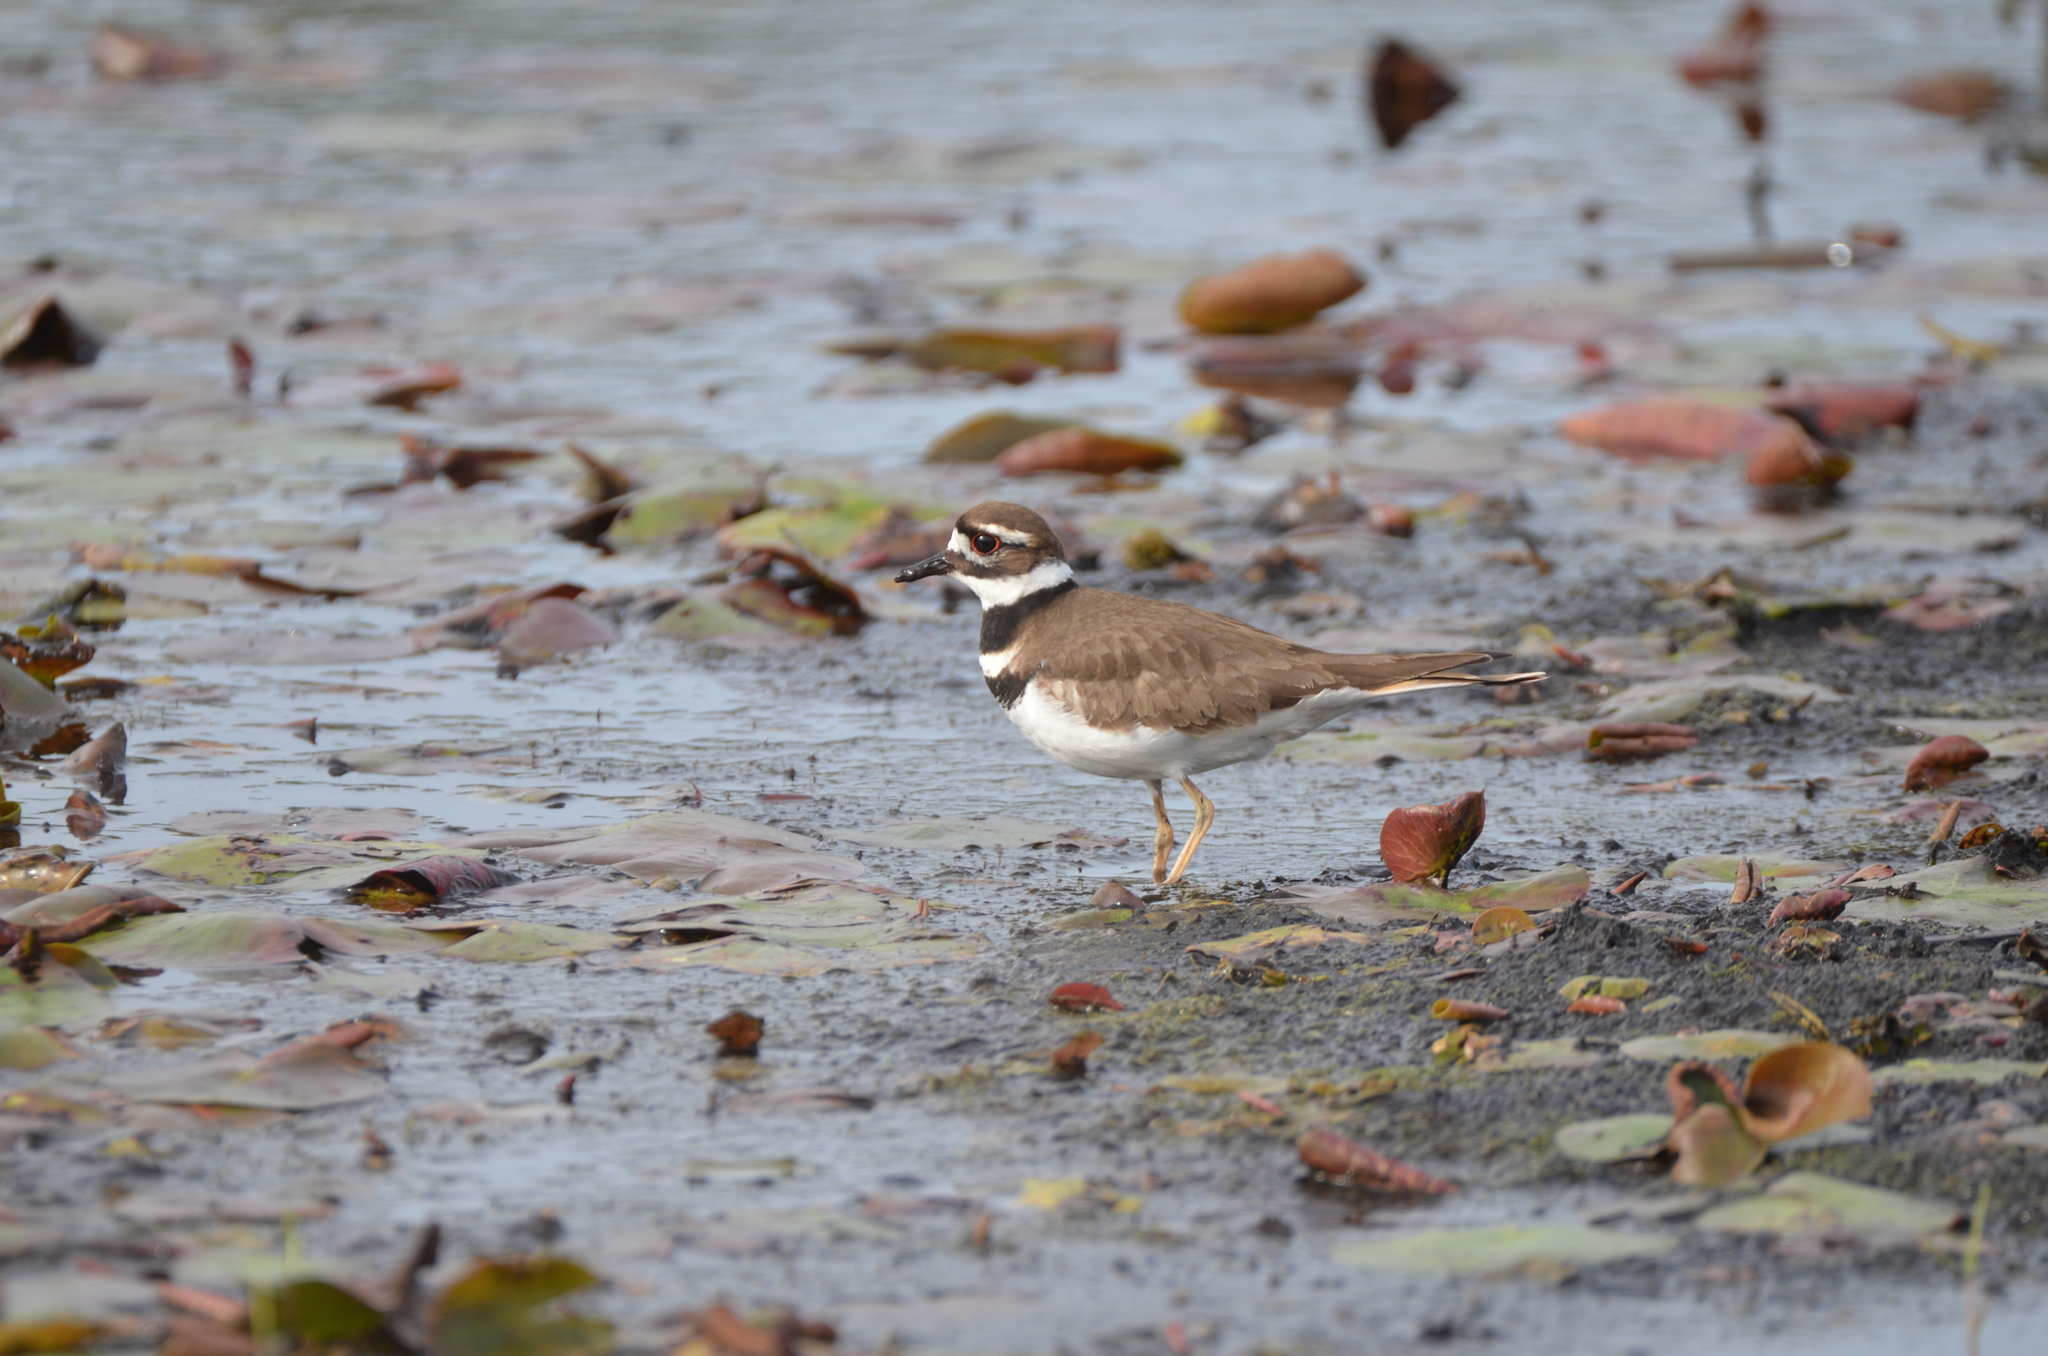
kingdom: Animalia
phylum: Chordata
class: Aves
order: Charadriiformes
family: Charadriidae
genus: Charadrius
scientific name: Charadrius vociferus
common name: Killdeer
